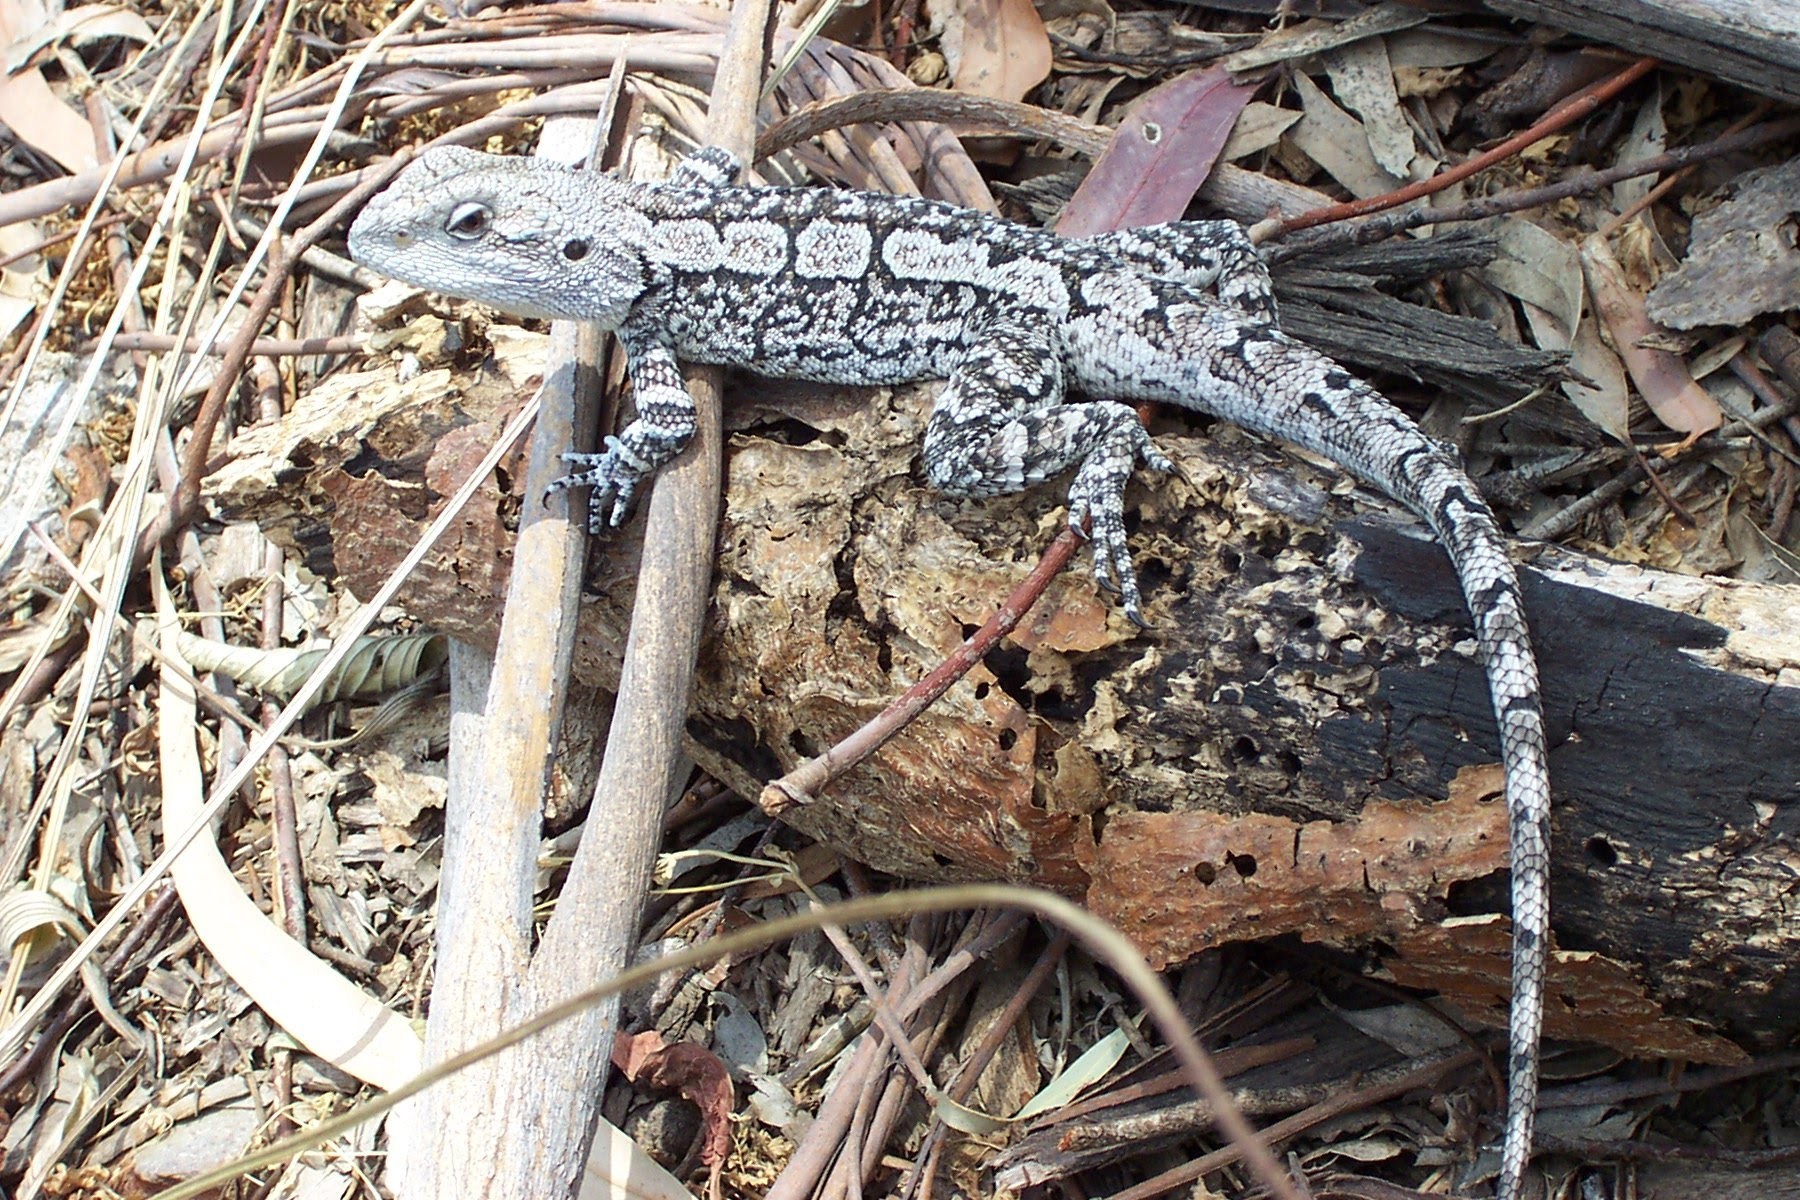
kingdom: Animalia
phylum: Chordata
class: Squamata
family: Agamidae
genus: Amphibolurus
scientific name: Amphibolurus muricatus
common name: Jacky lizard
